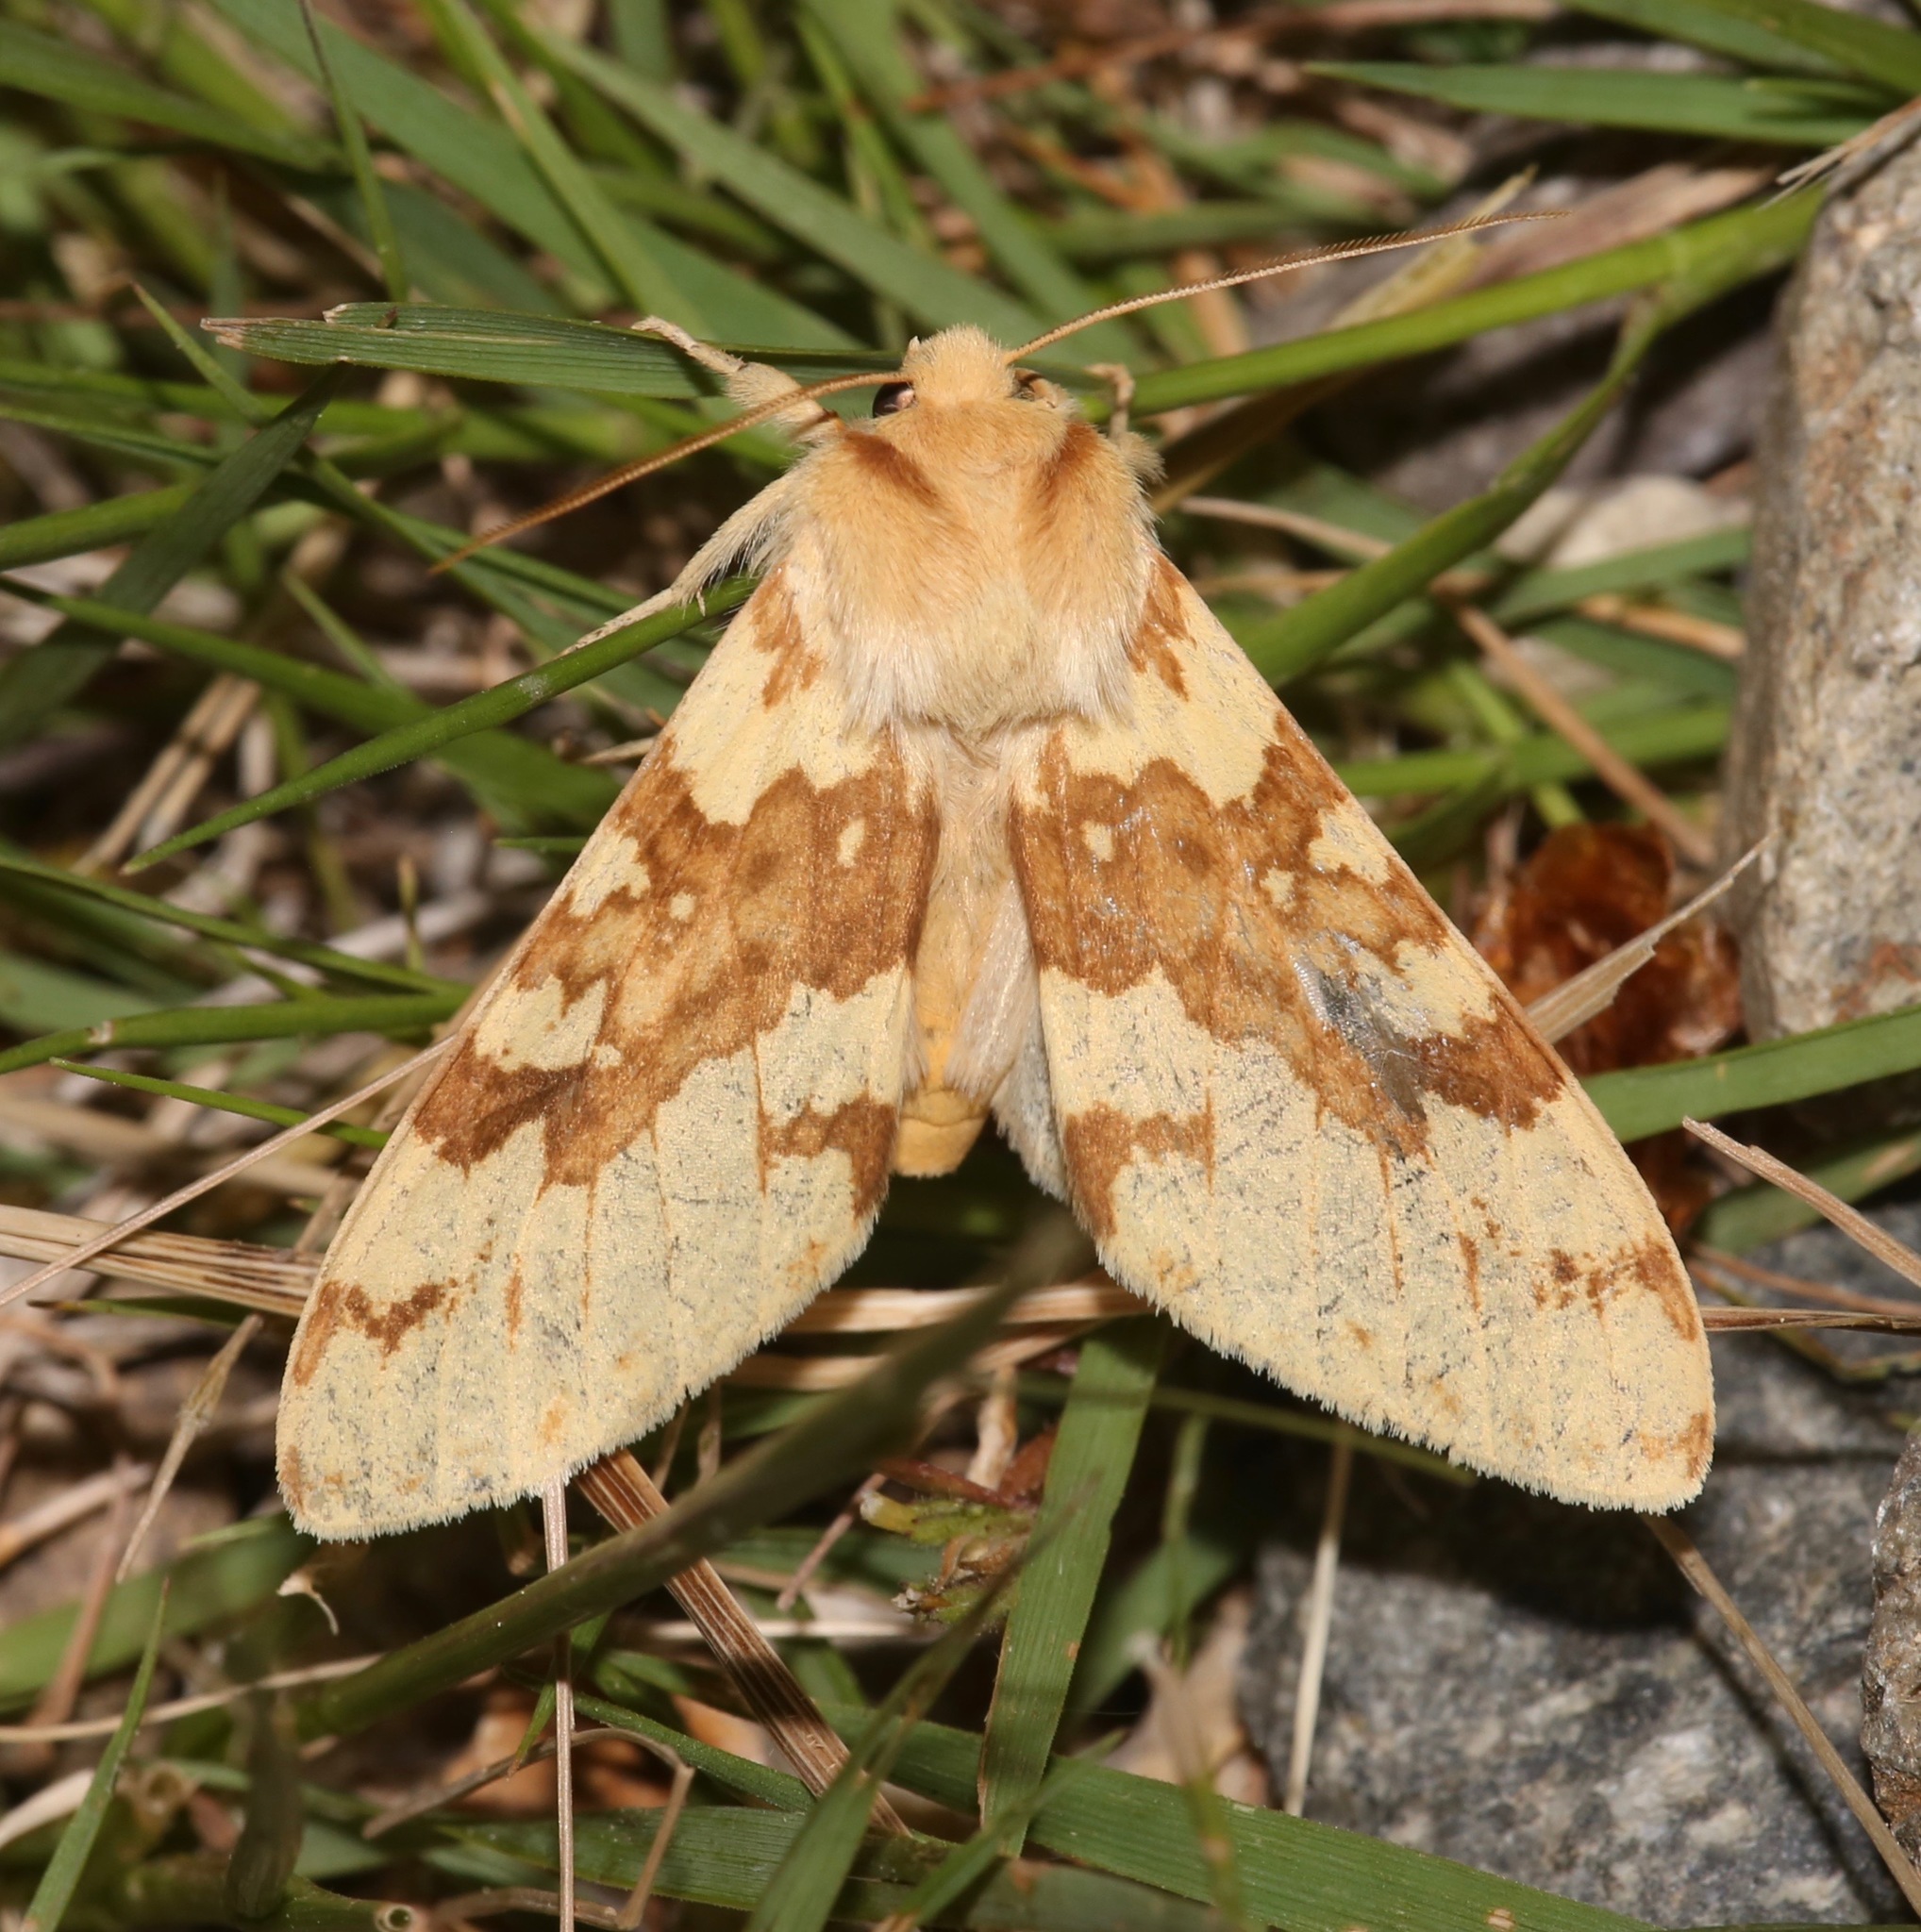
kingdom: Animalia
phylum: Arthropoda
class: Insecta
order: Lepidoptera
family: Erebidae
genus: Lophocampa
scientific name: Lophocampa maculata
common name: Spotted tussock moth
